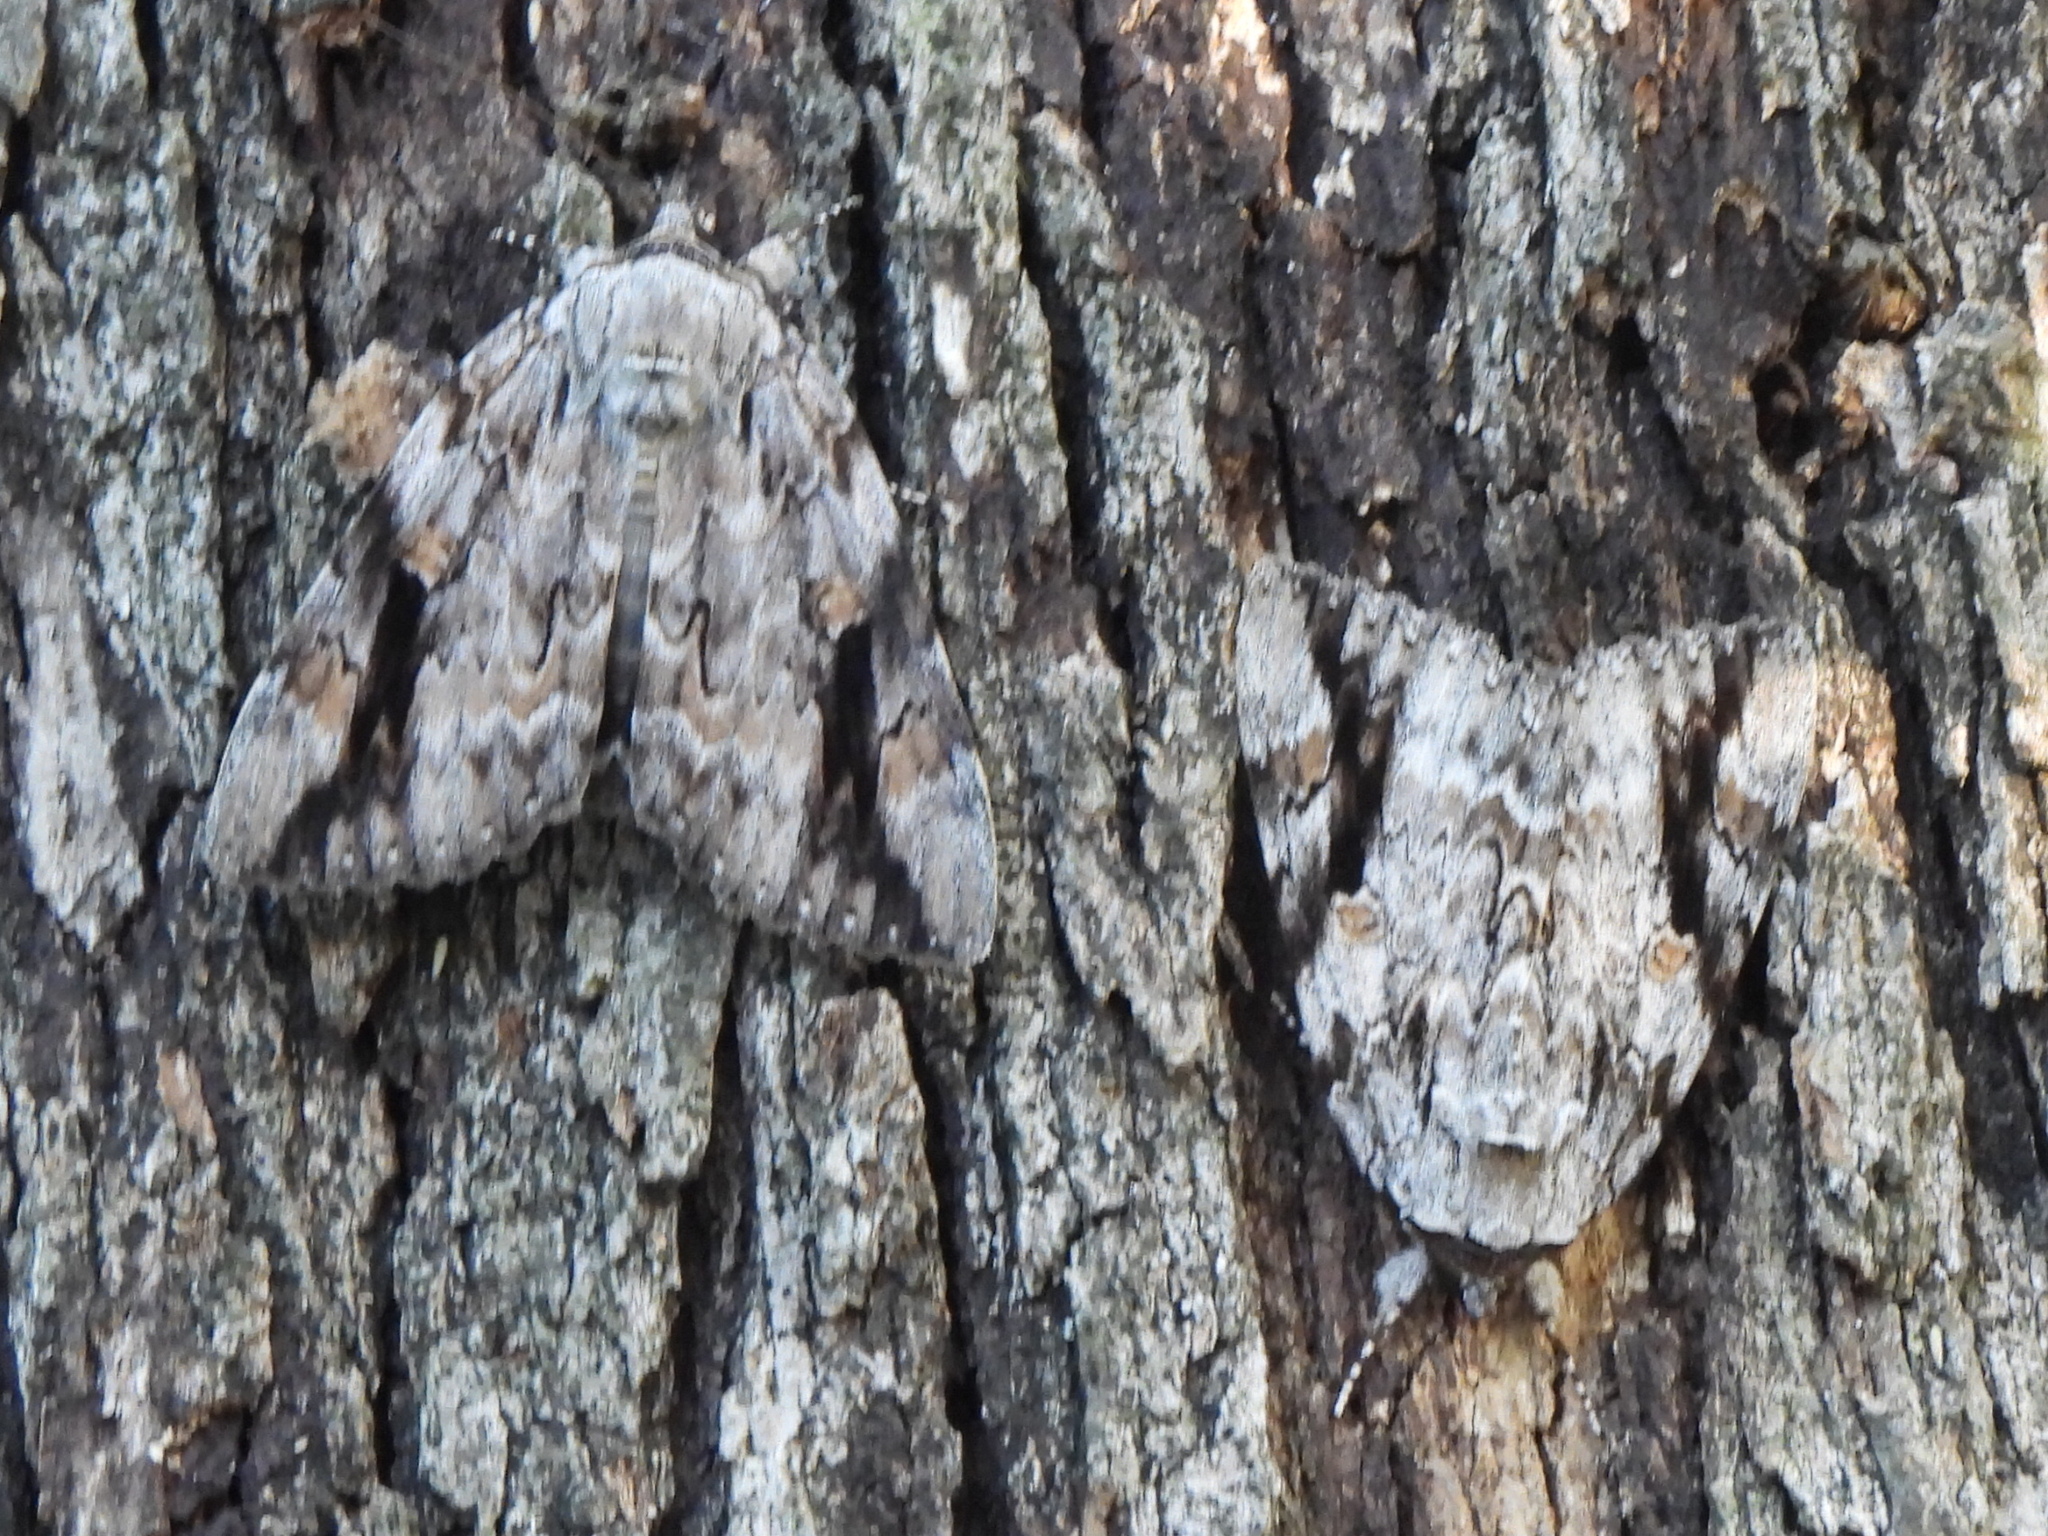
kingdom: Animalia
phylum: Arthropoda
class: Insecta
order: Lepidoptera
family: Erebidae
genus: Catocala
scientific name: Catocala maestosa
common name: Sad underwing
